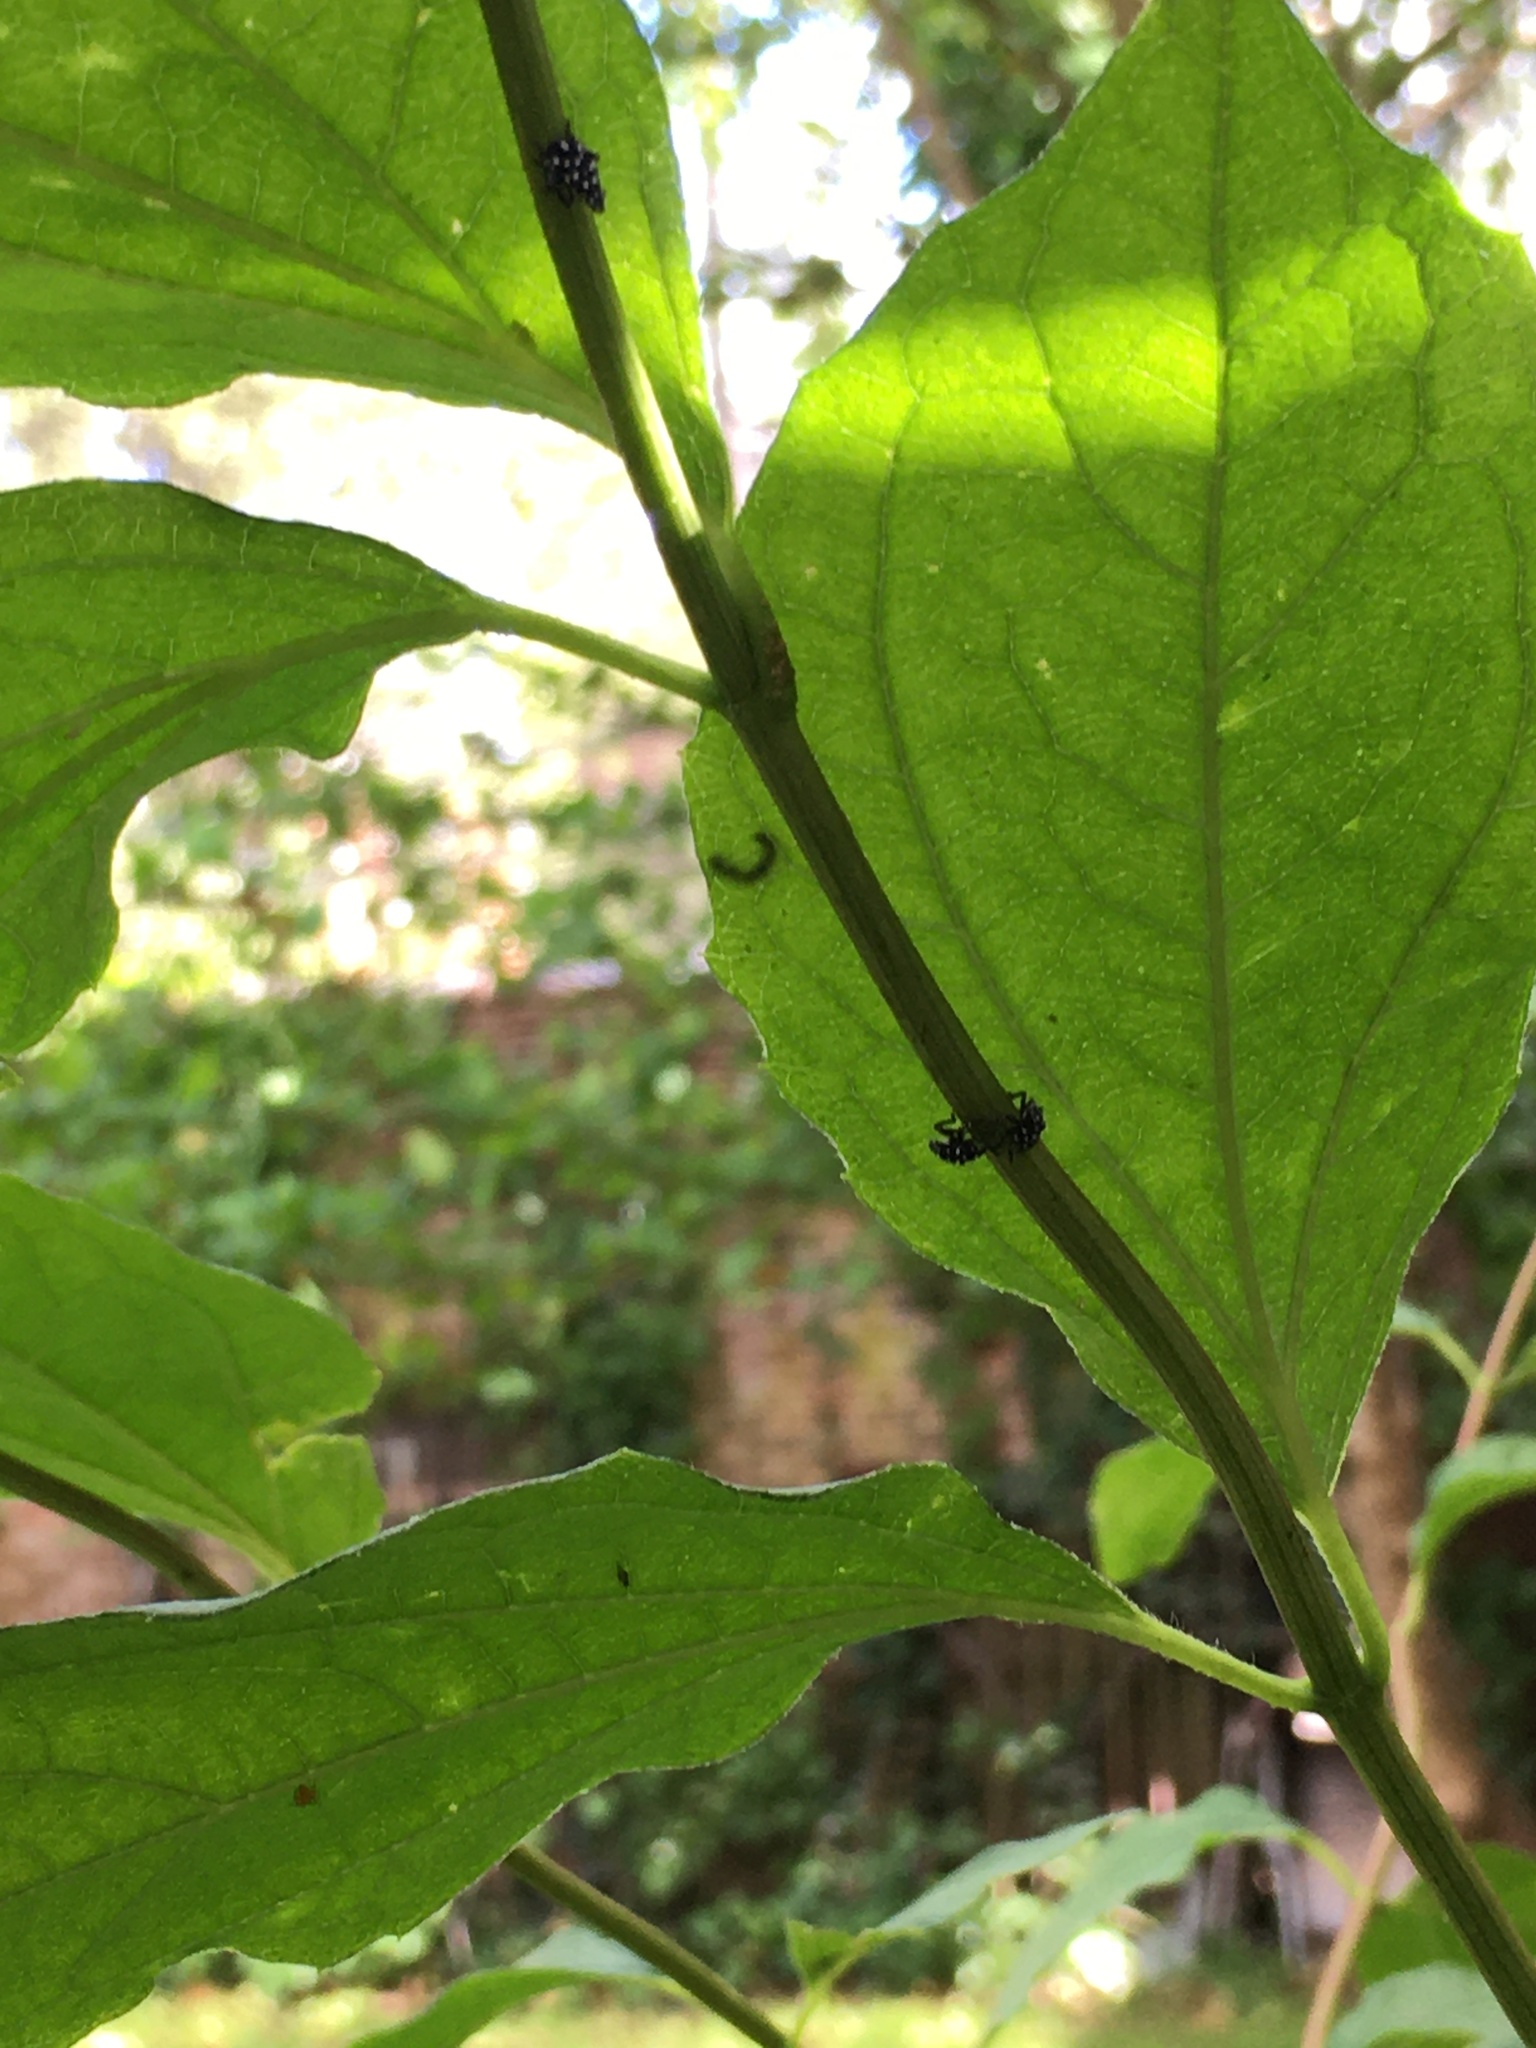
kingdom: Animalia
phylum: Arthropoda
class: Insecta
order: Hemiptera
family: Fulgoridae
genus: Lycorma
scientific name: Lycorma delicatula
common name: Spotted lanternfly
